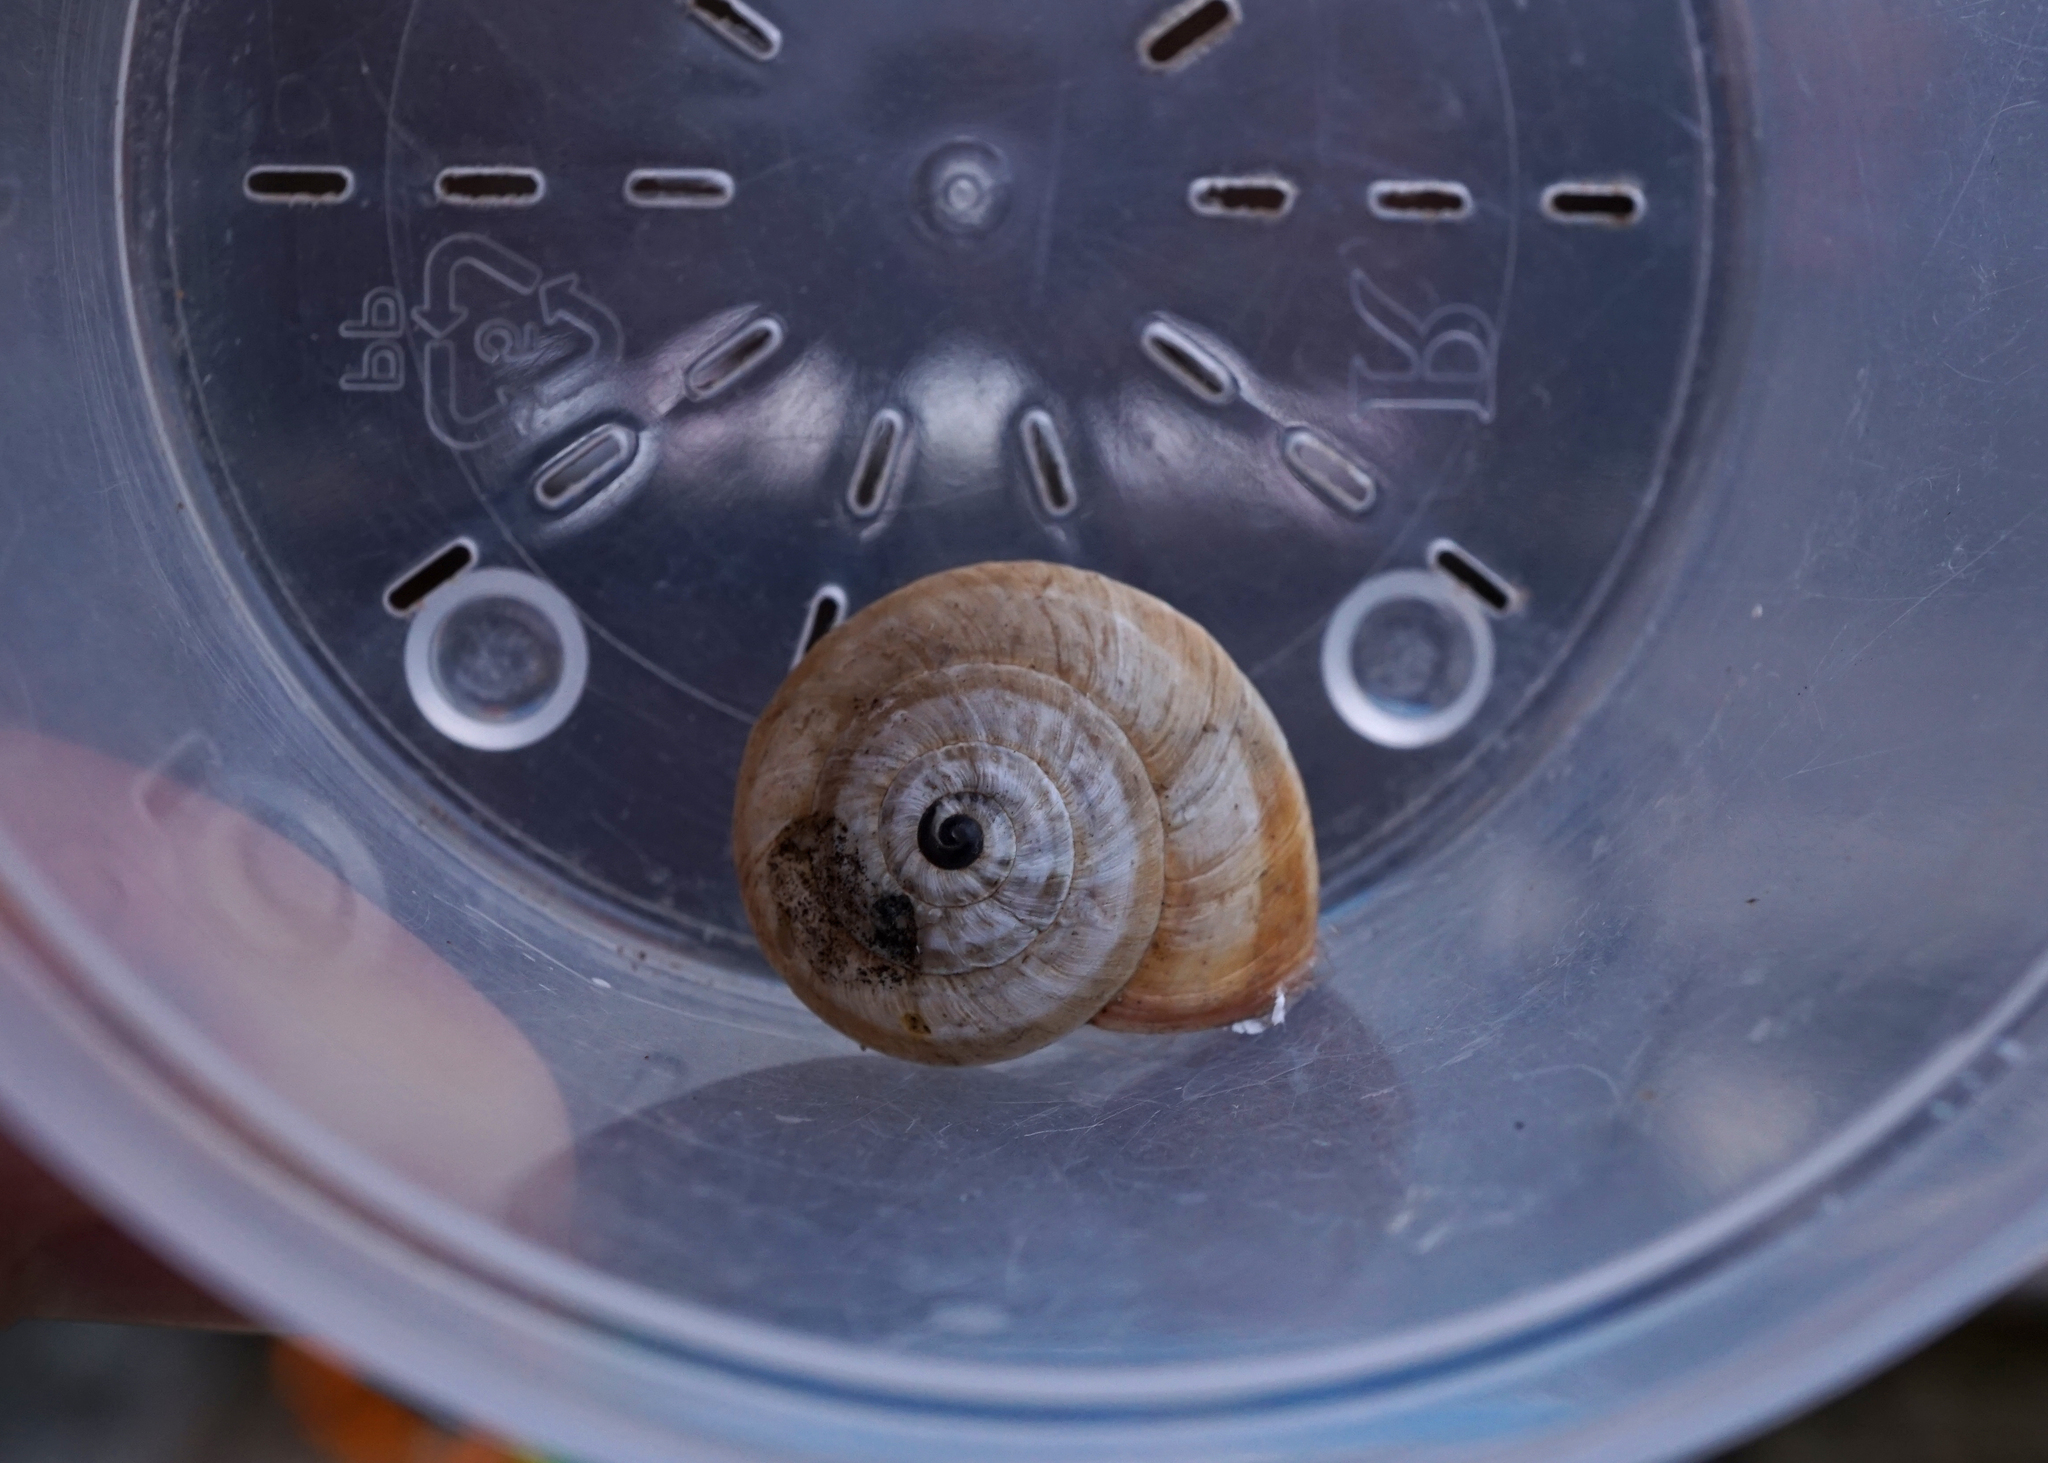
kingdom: Animalia
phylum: Mollusca
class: Gastropoda
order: Stylommatophora
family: Helicidae
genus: Theba
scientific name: Theba pisana
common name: White snail
